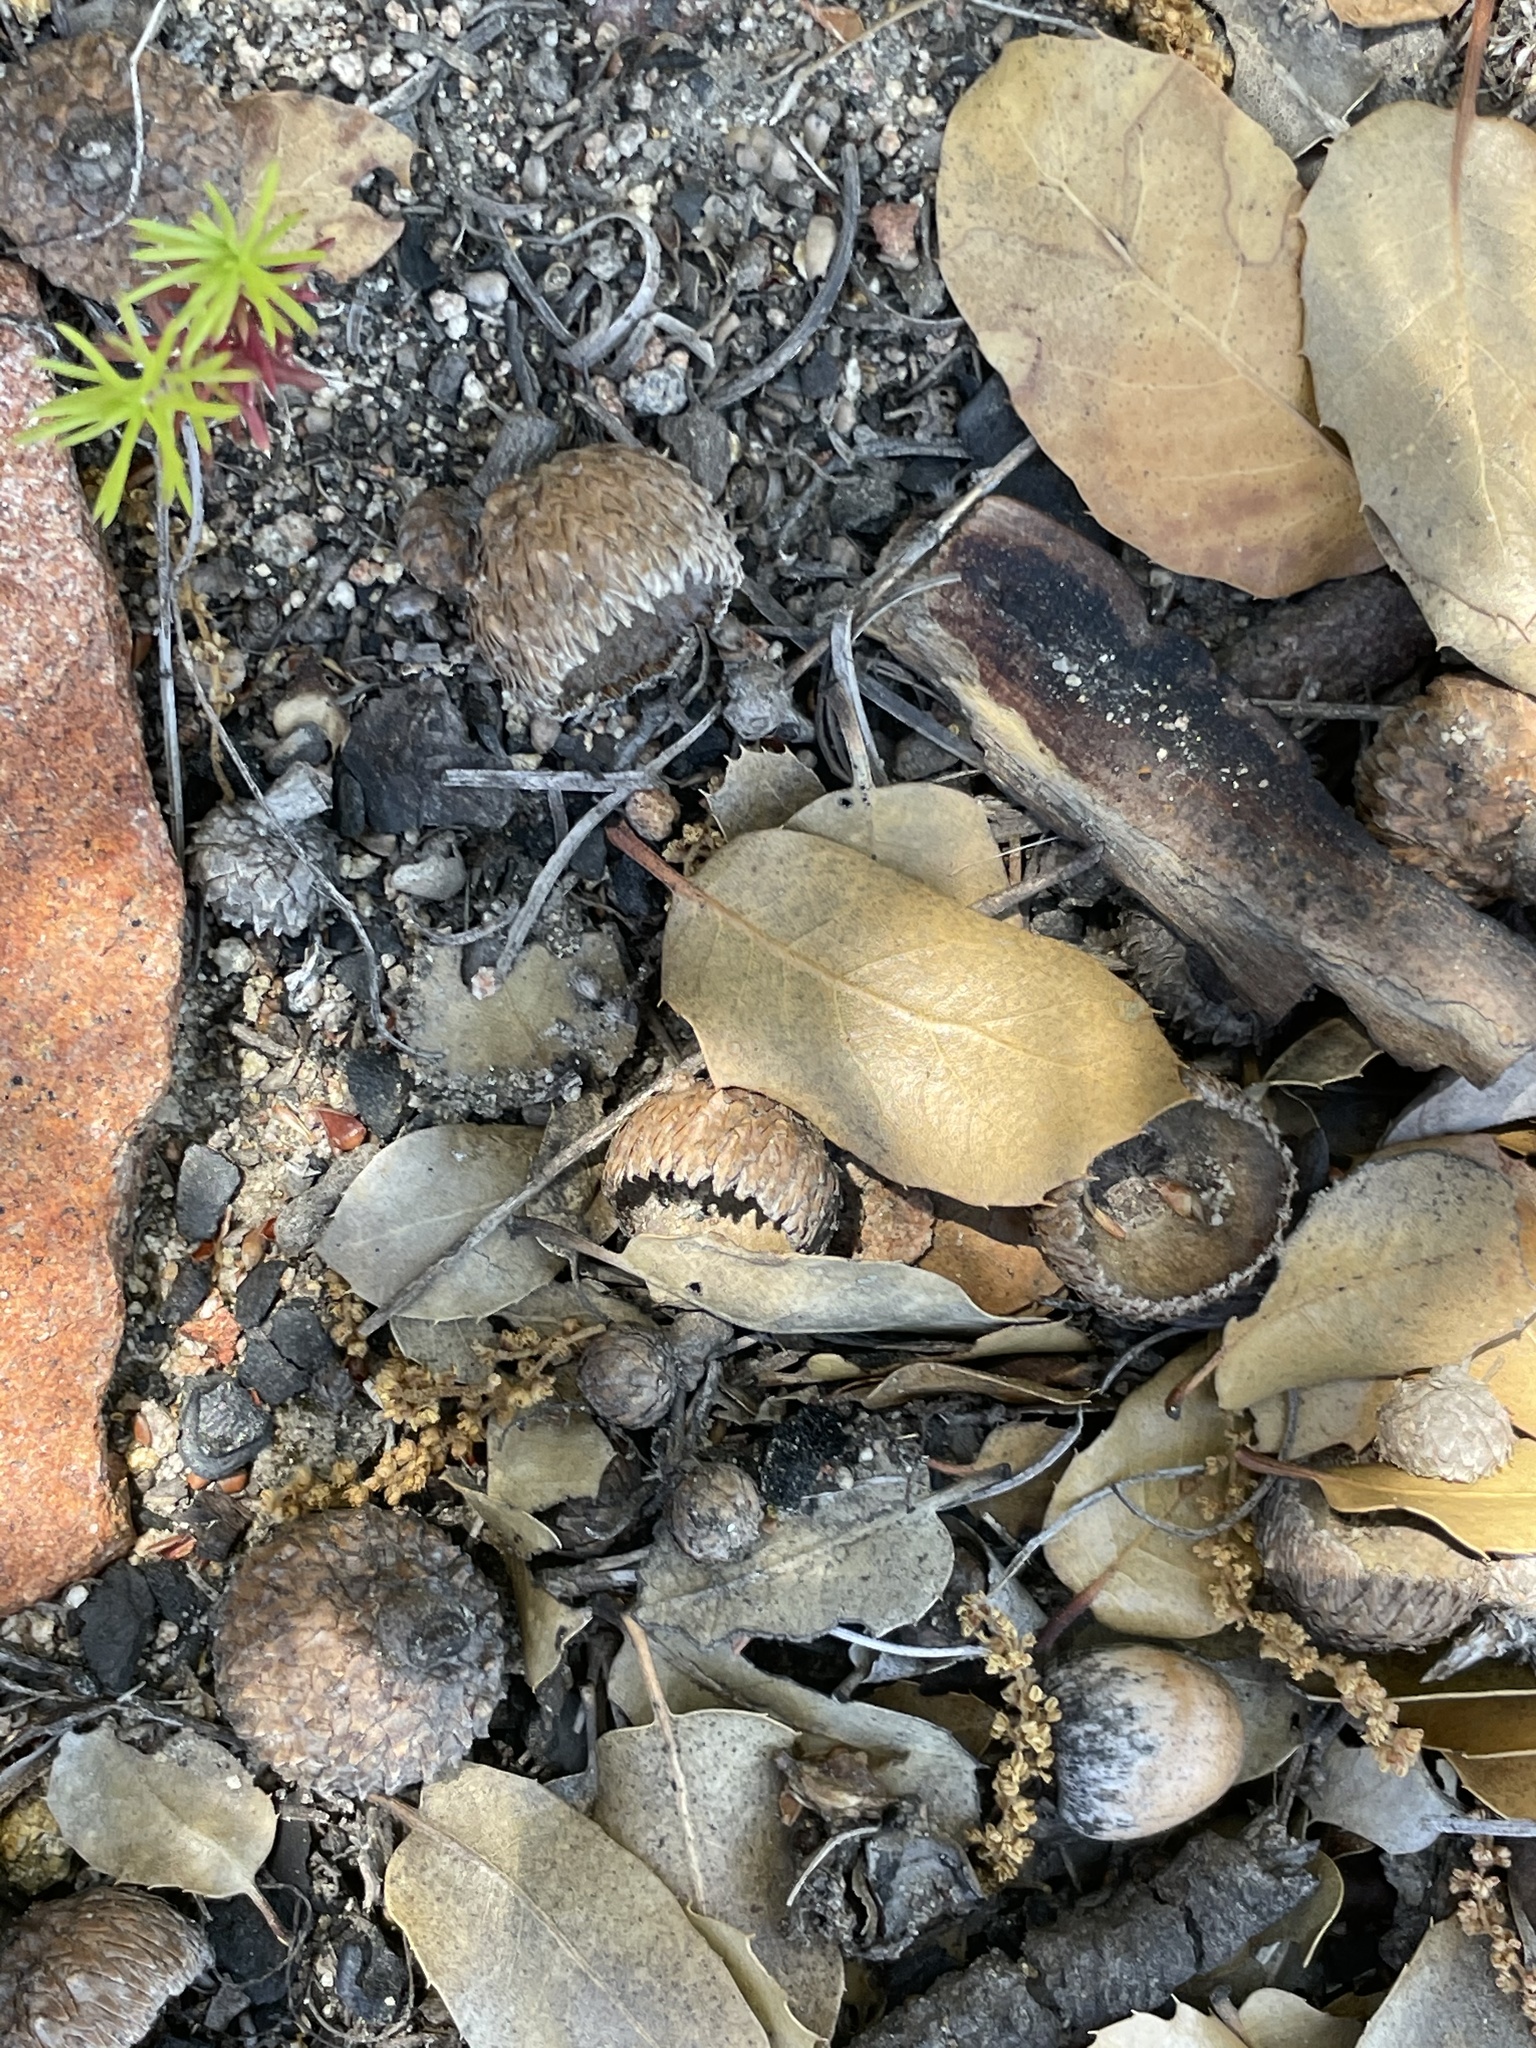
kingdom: Plantae
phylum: Tracheophyta
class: Magnoliopsida
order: Fagales
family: Fagaceae
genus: Quercus
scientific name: Quercus wislizeni
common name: Interior live oak
